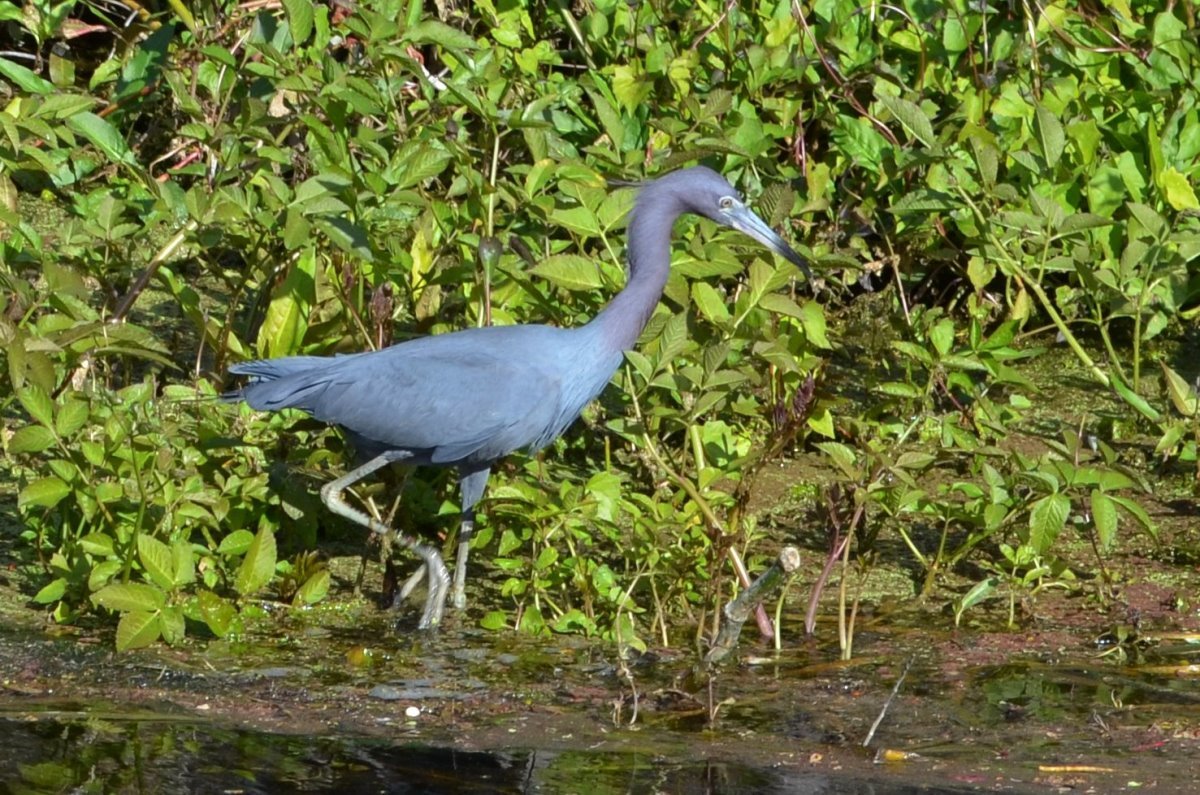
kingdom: Animalia
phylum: Chordata
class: Aves
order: Pelecaniformes
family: Ardeidae
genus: Egretta
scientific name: Egretta caerulea
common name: Little blue heron
